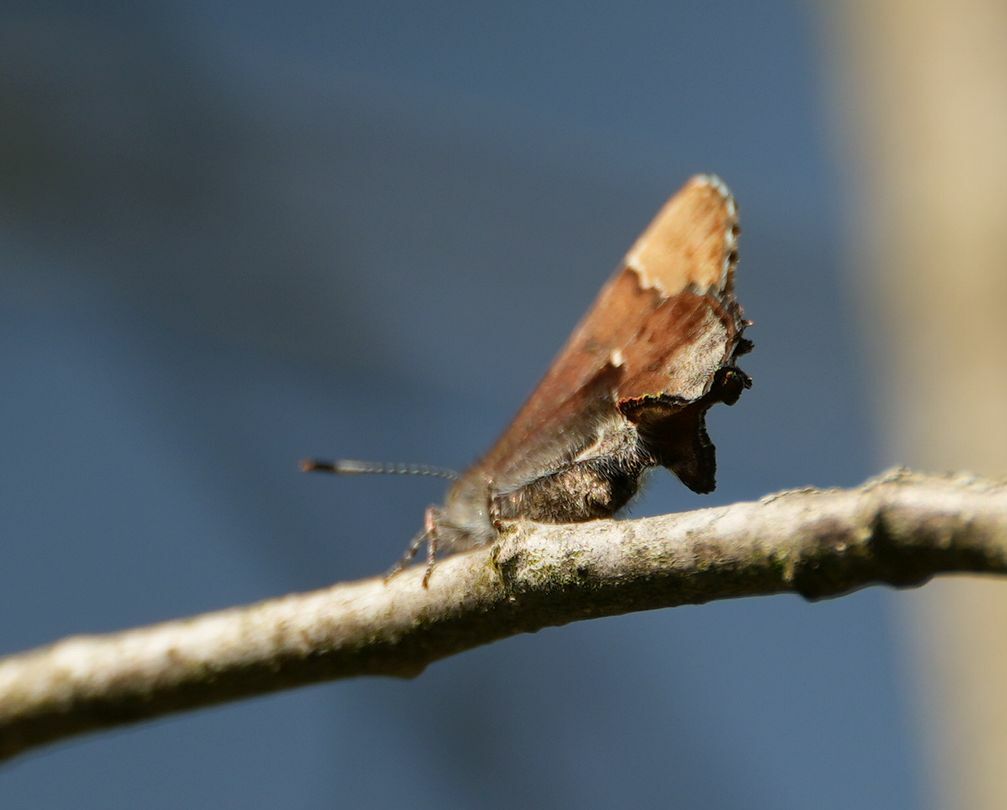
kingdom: Animalia
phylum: Arthropoda
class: Insecta
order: Lepidoptera
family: Lycaenidae
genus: Incisalia
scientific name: Incisalia henrici
